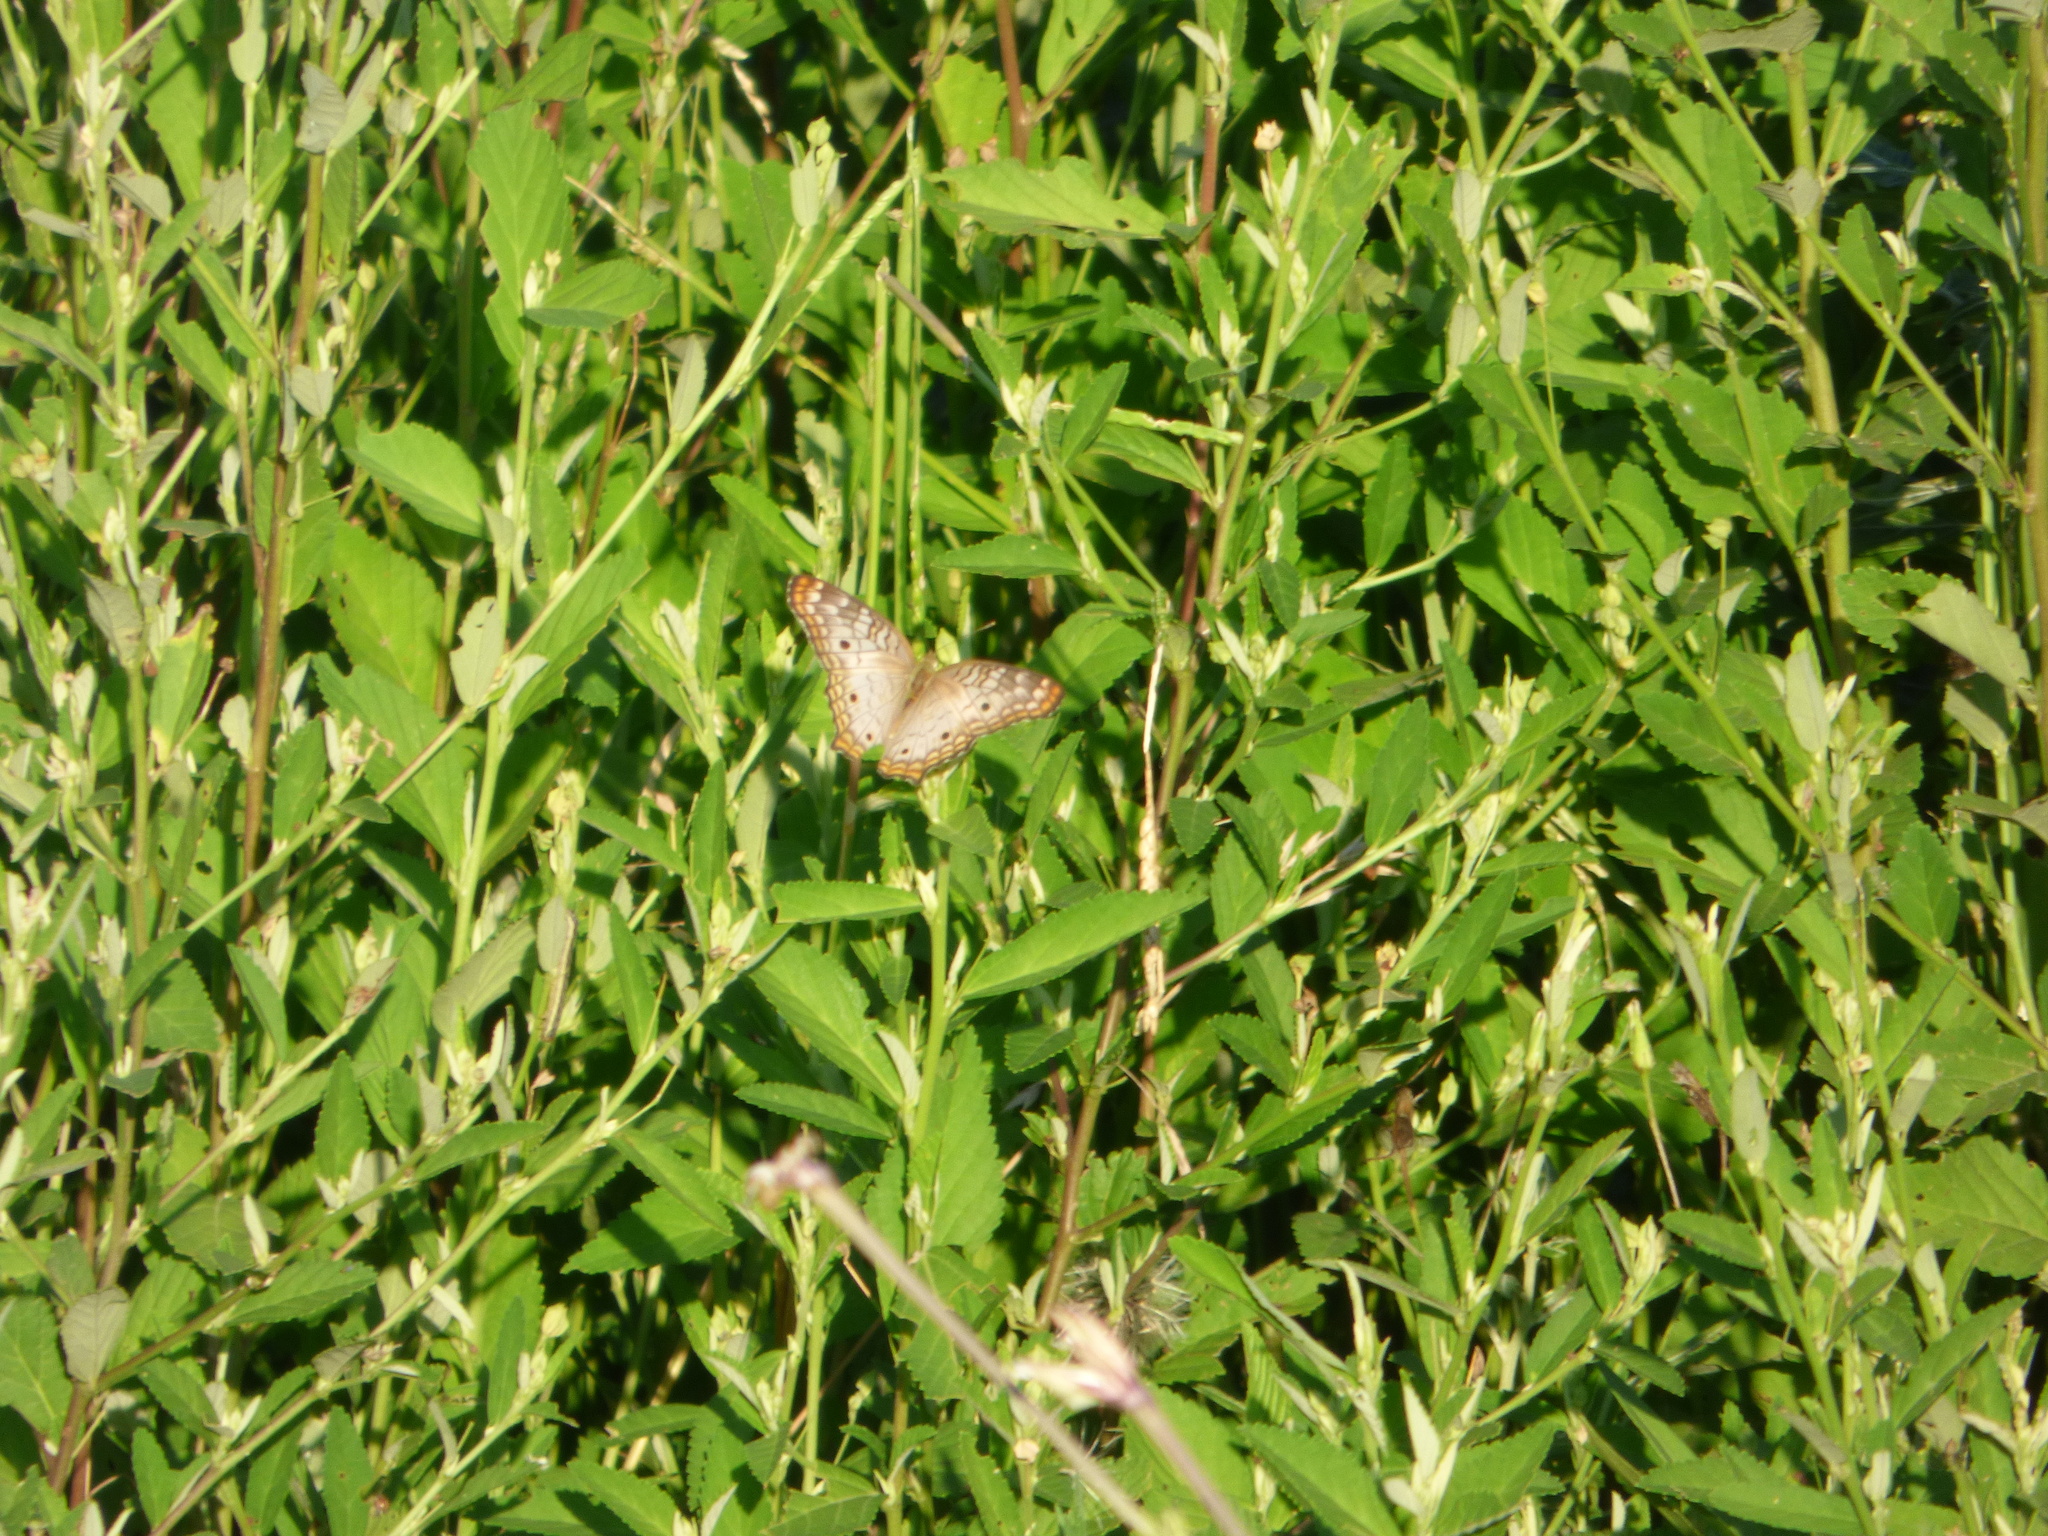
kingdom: Animalia
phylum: Arthropoda
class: Insecta
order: Lepidoptera
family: Nymphalidae
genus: Anartia
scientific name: Anartia jatrophae
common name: White peacock
